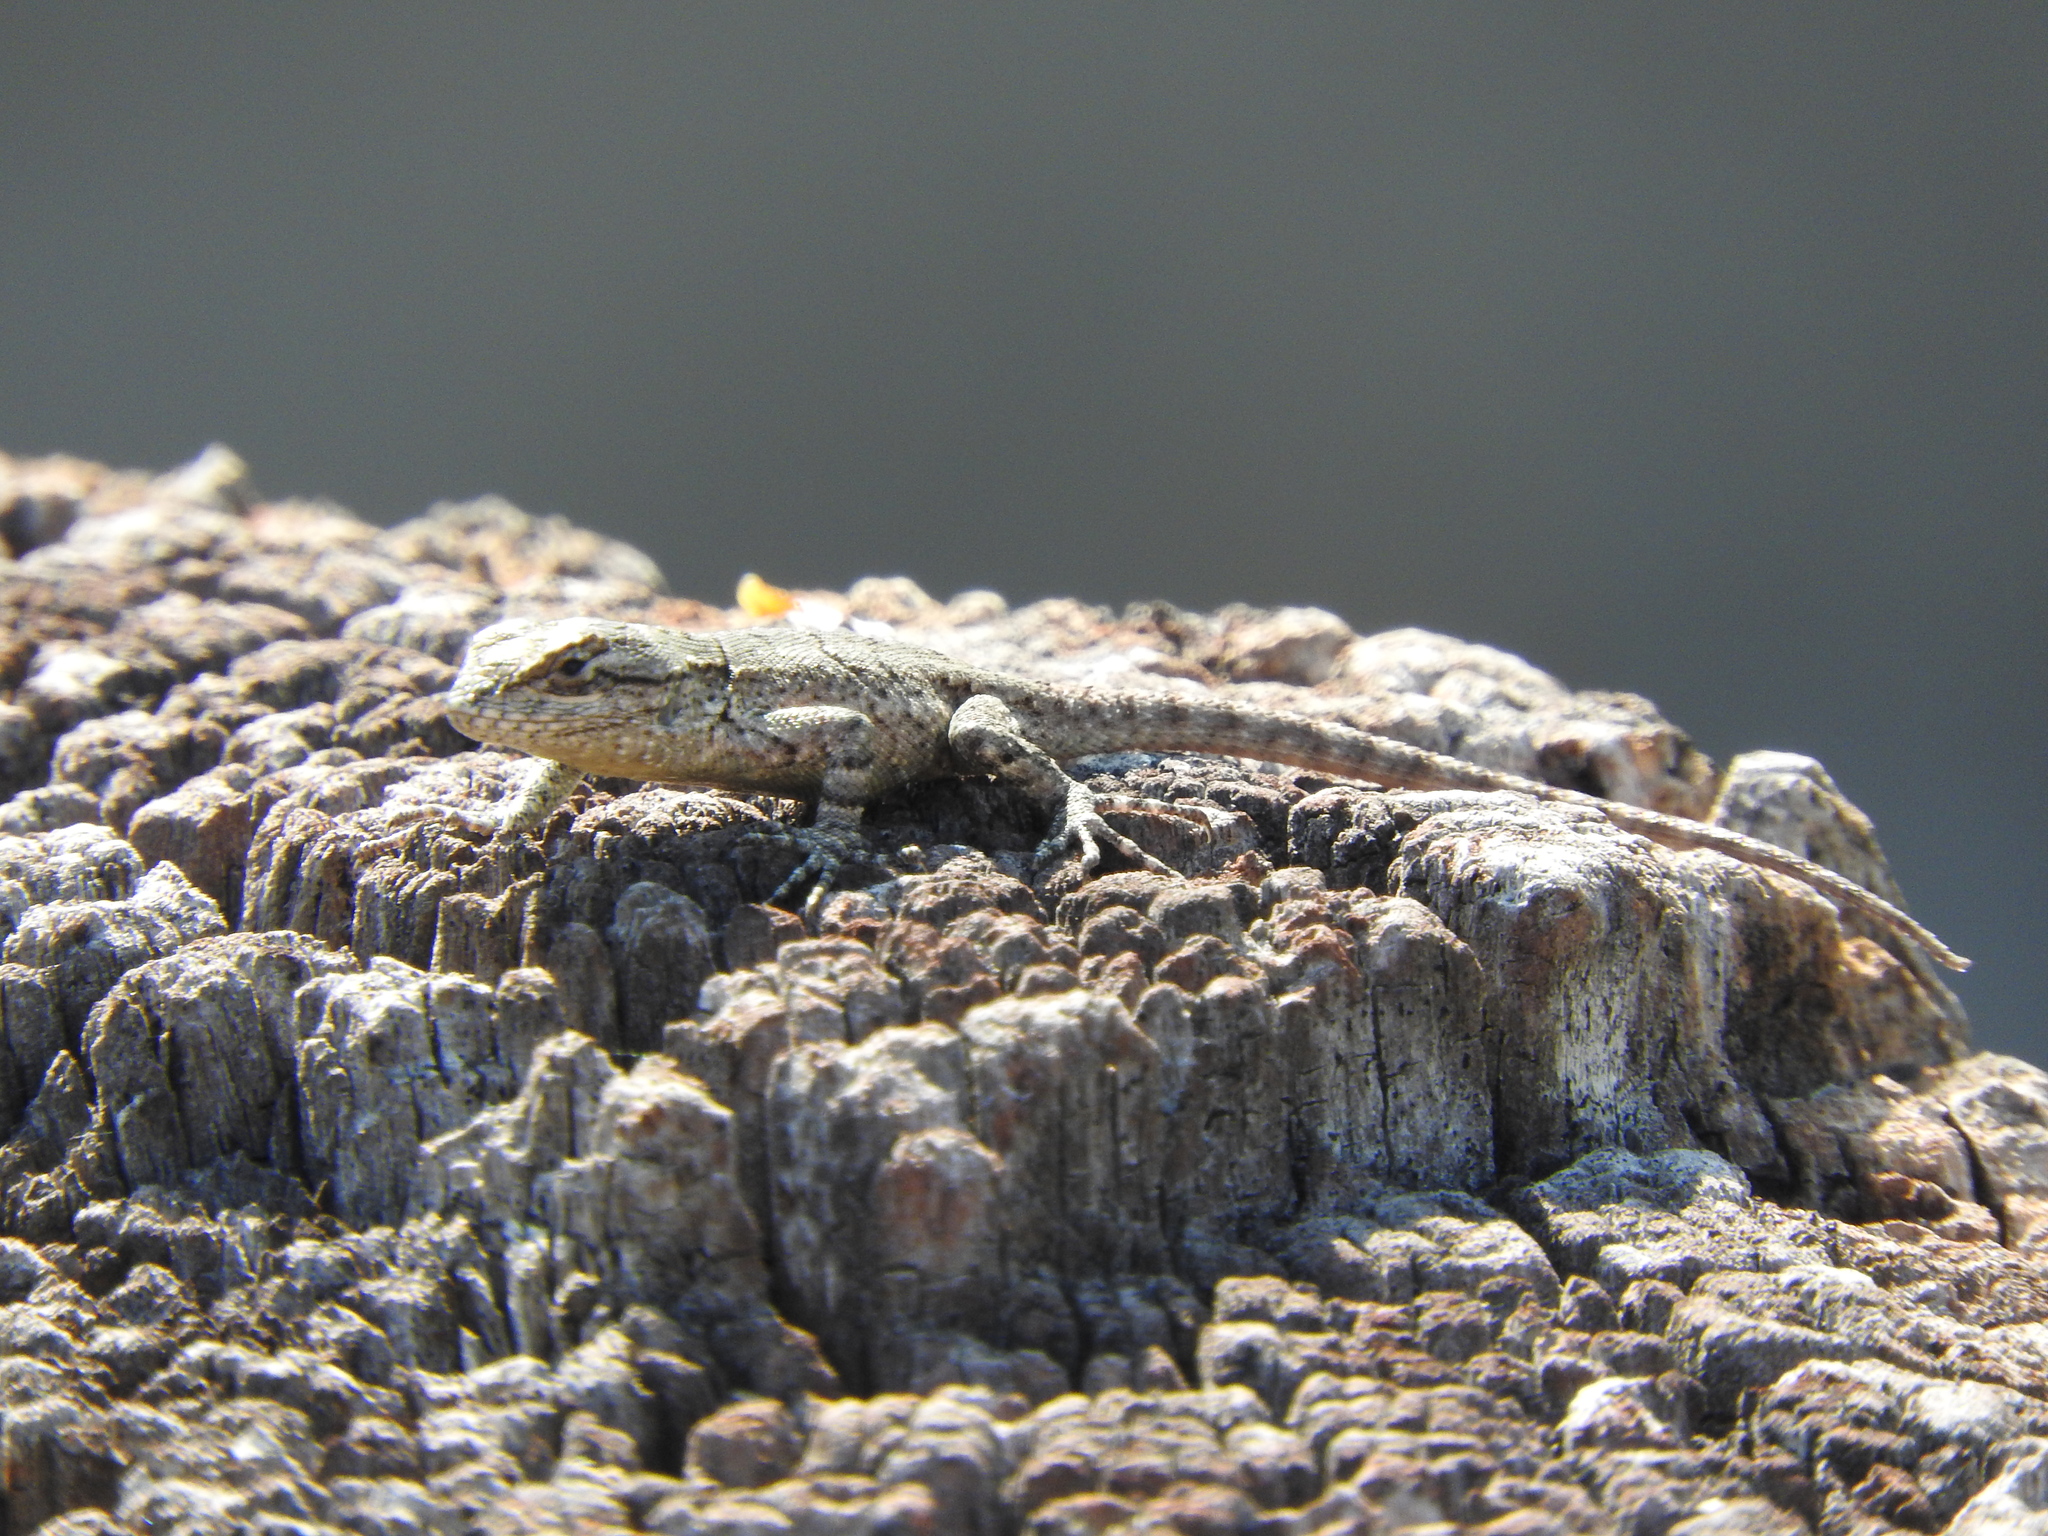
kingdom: Animalia
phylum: Chordata
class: Squamata
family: Phrynosomatidae
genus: Sceloporus
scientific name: Sceloporus grammicus
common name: Mesquite lizard
